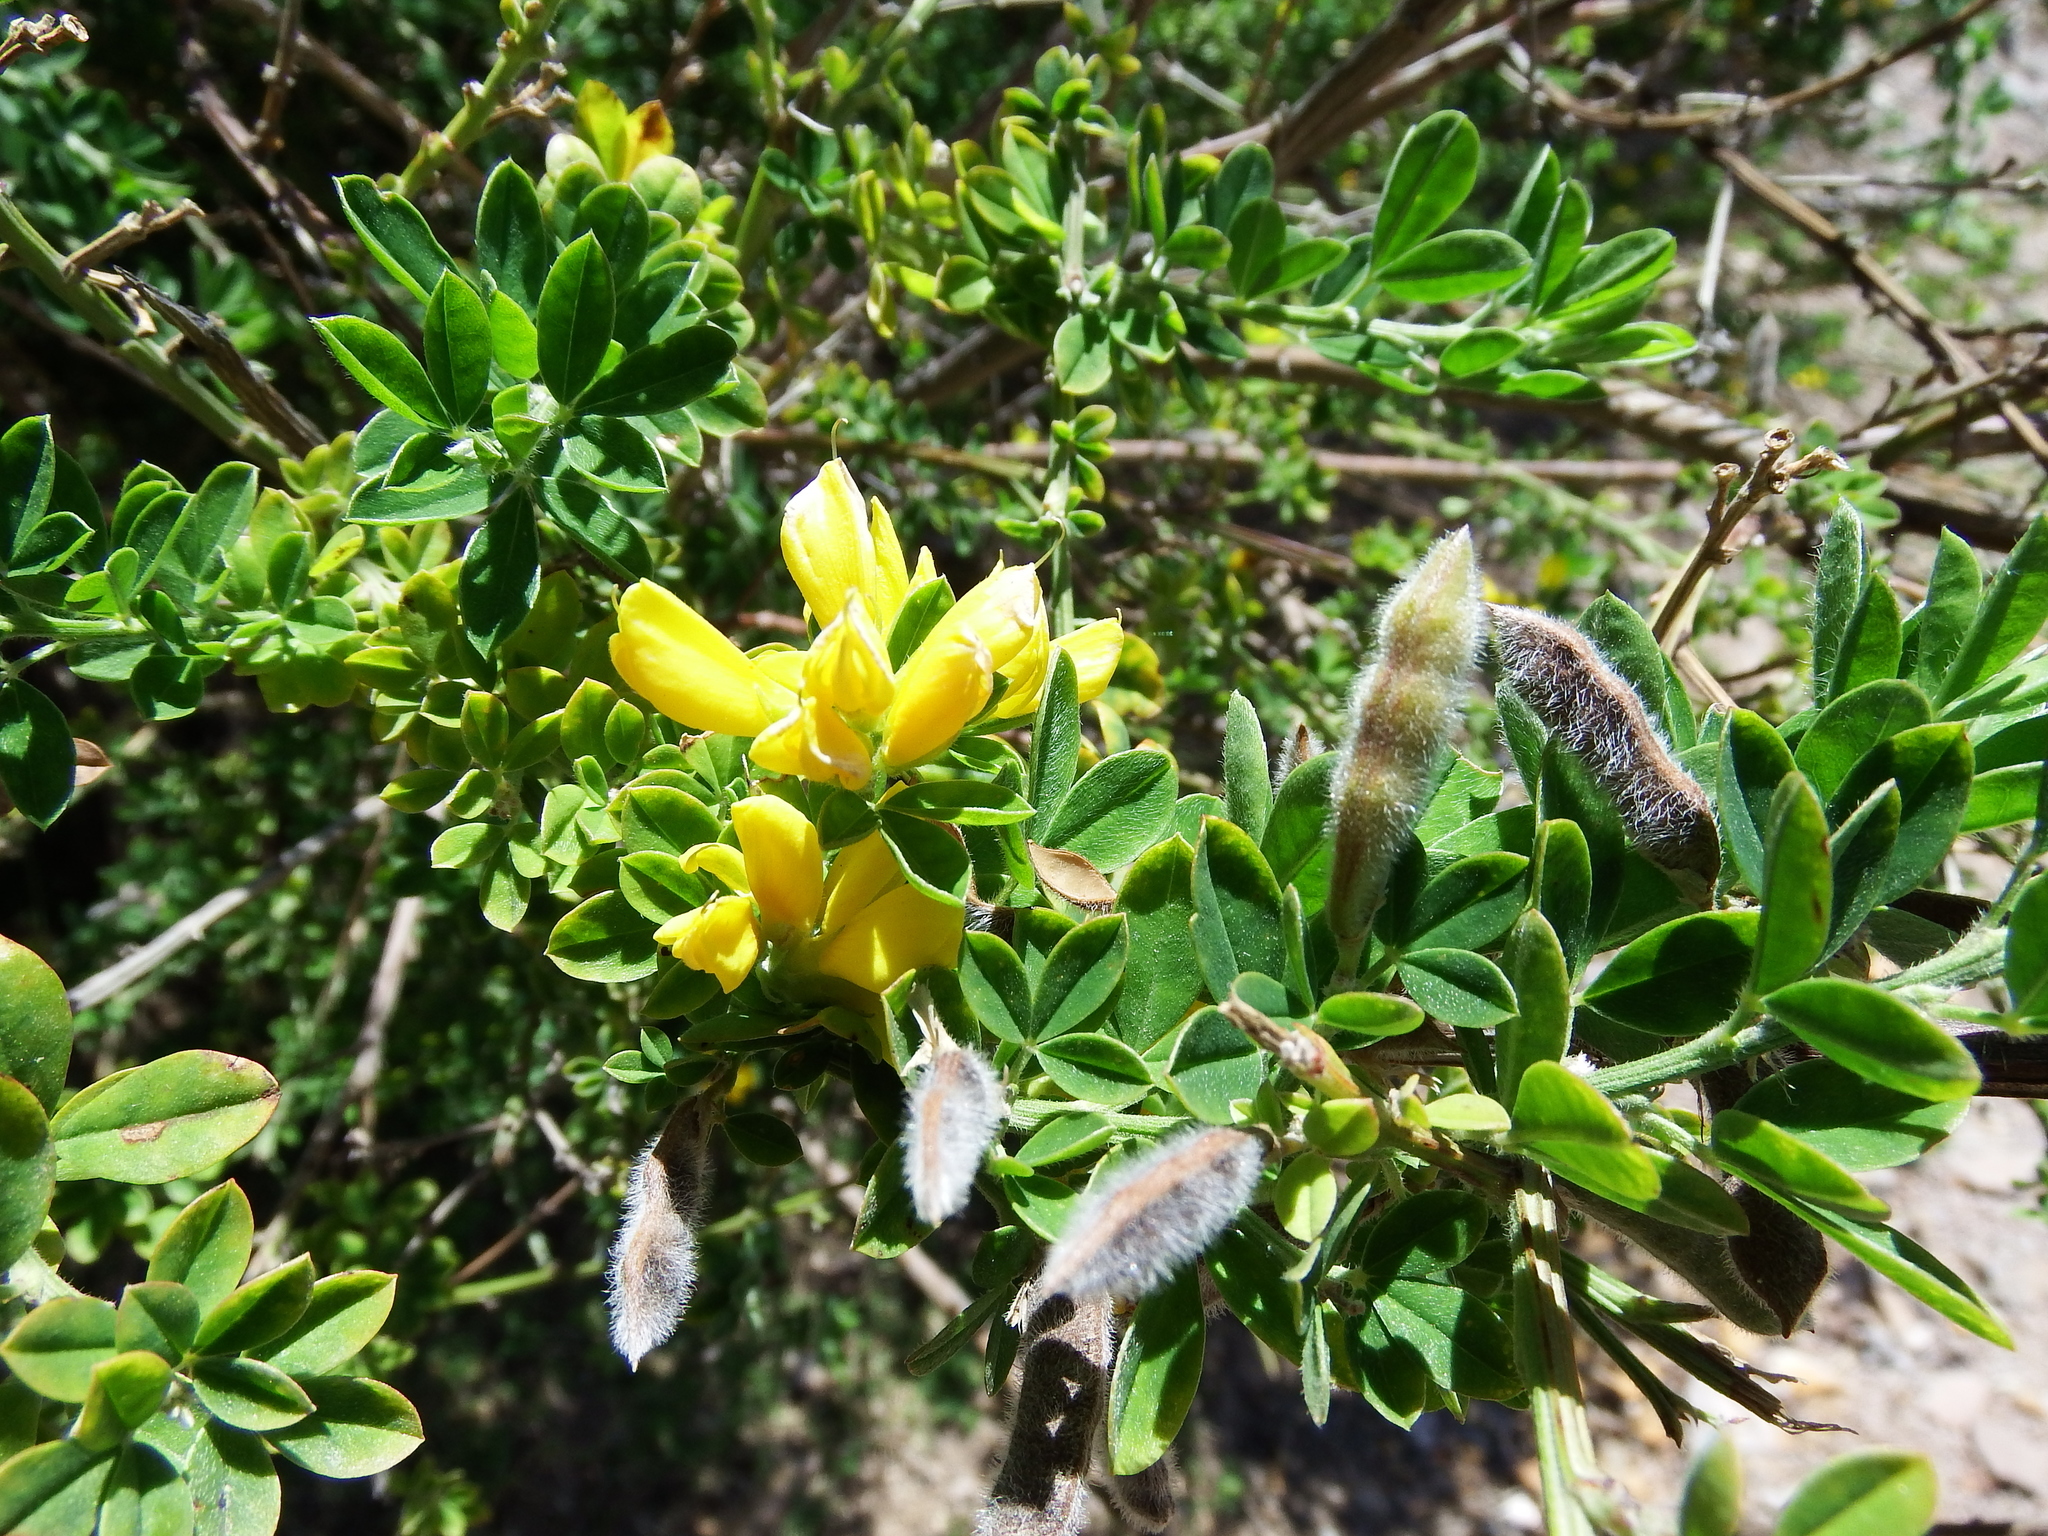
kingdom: Plantae
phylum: Tracheophyta
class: Magnoliopsida
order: Fabales
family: Fabaceae
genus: Genista
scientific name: Genista monspessulana
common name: Montpellier broom
